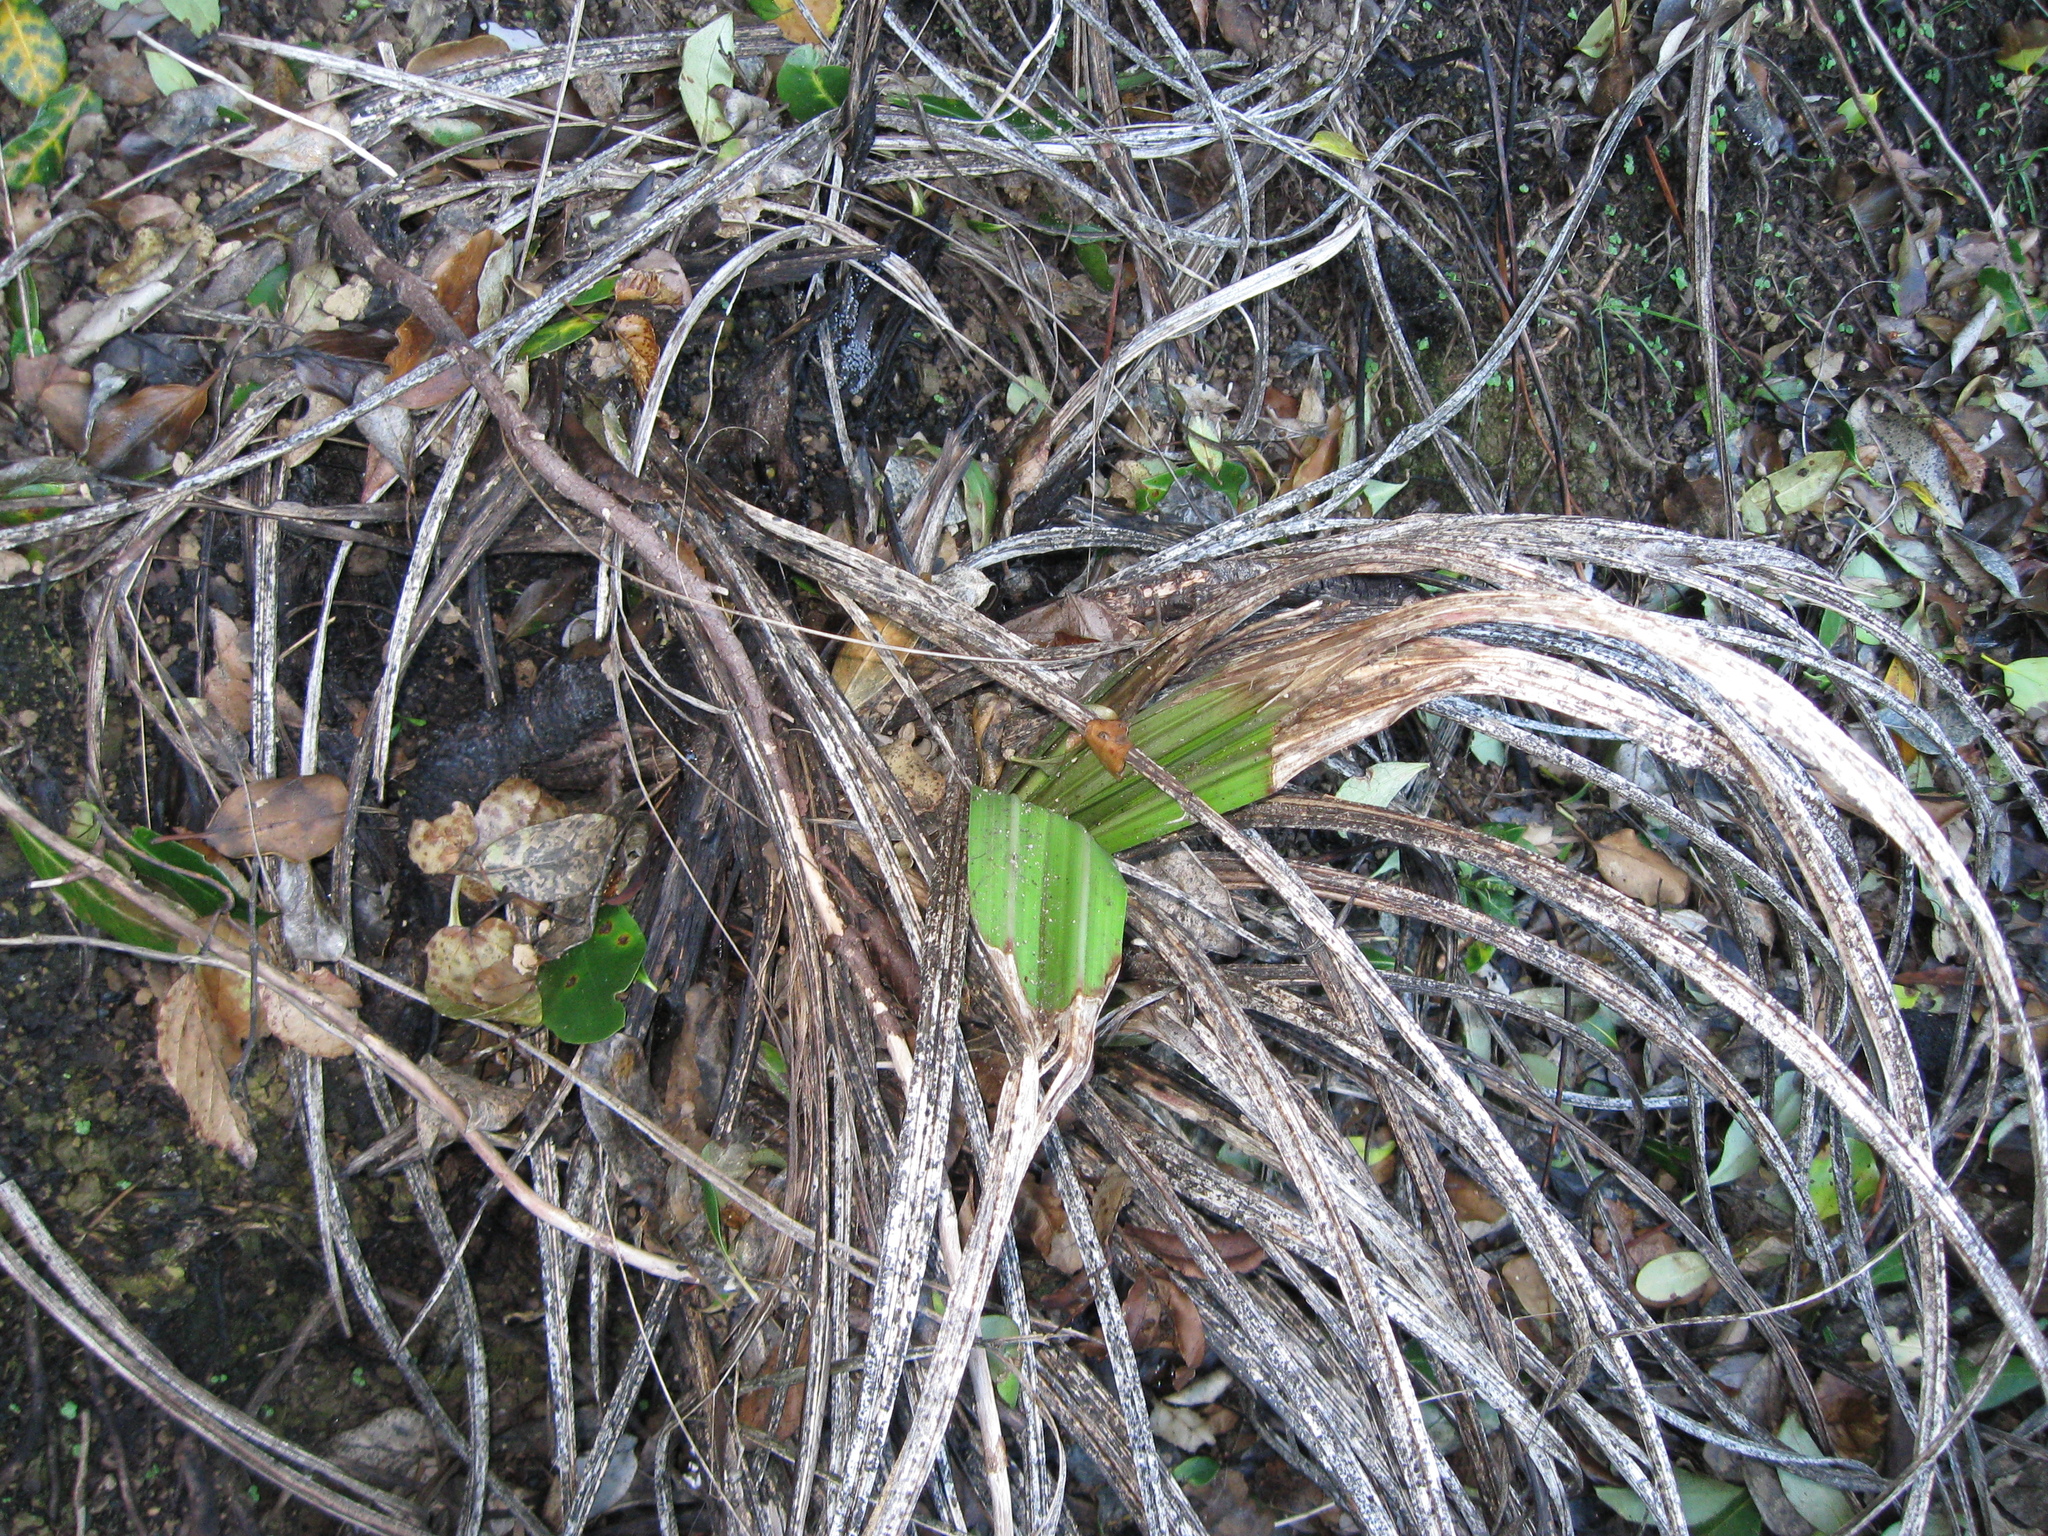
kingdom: Plantae
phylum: Tracheophyta
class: Liliopsida
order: Asparagales
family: Asteliaceae
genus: Astelia
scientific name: Astelia fragrans
